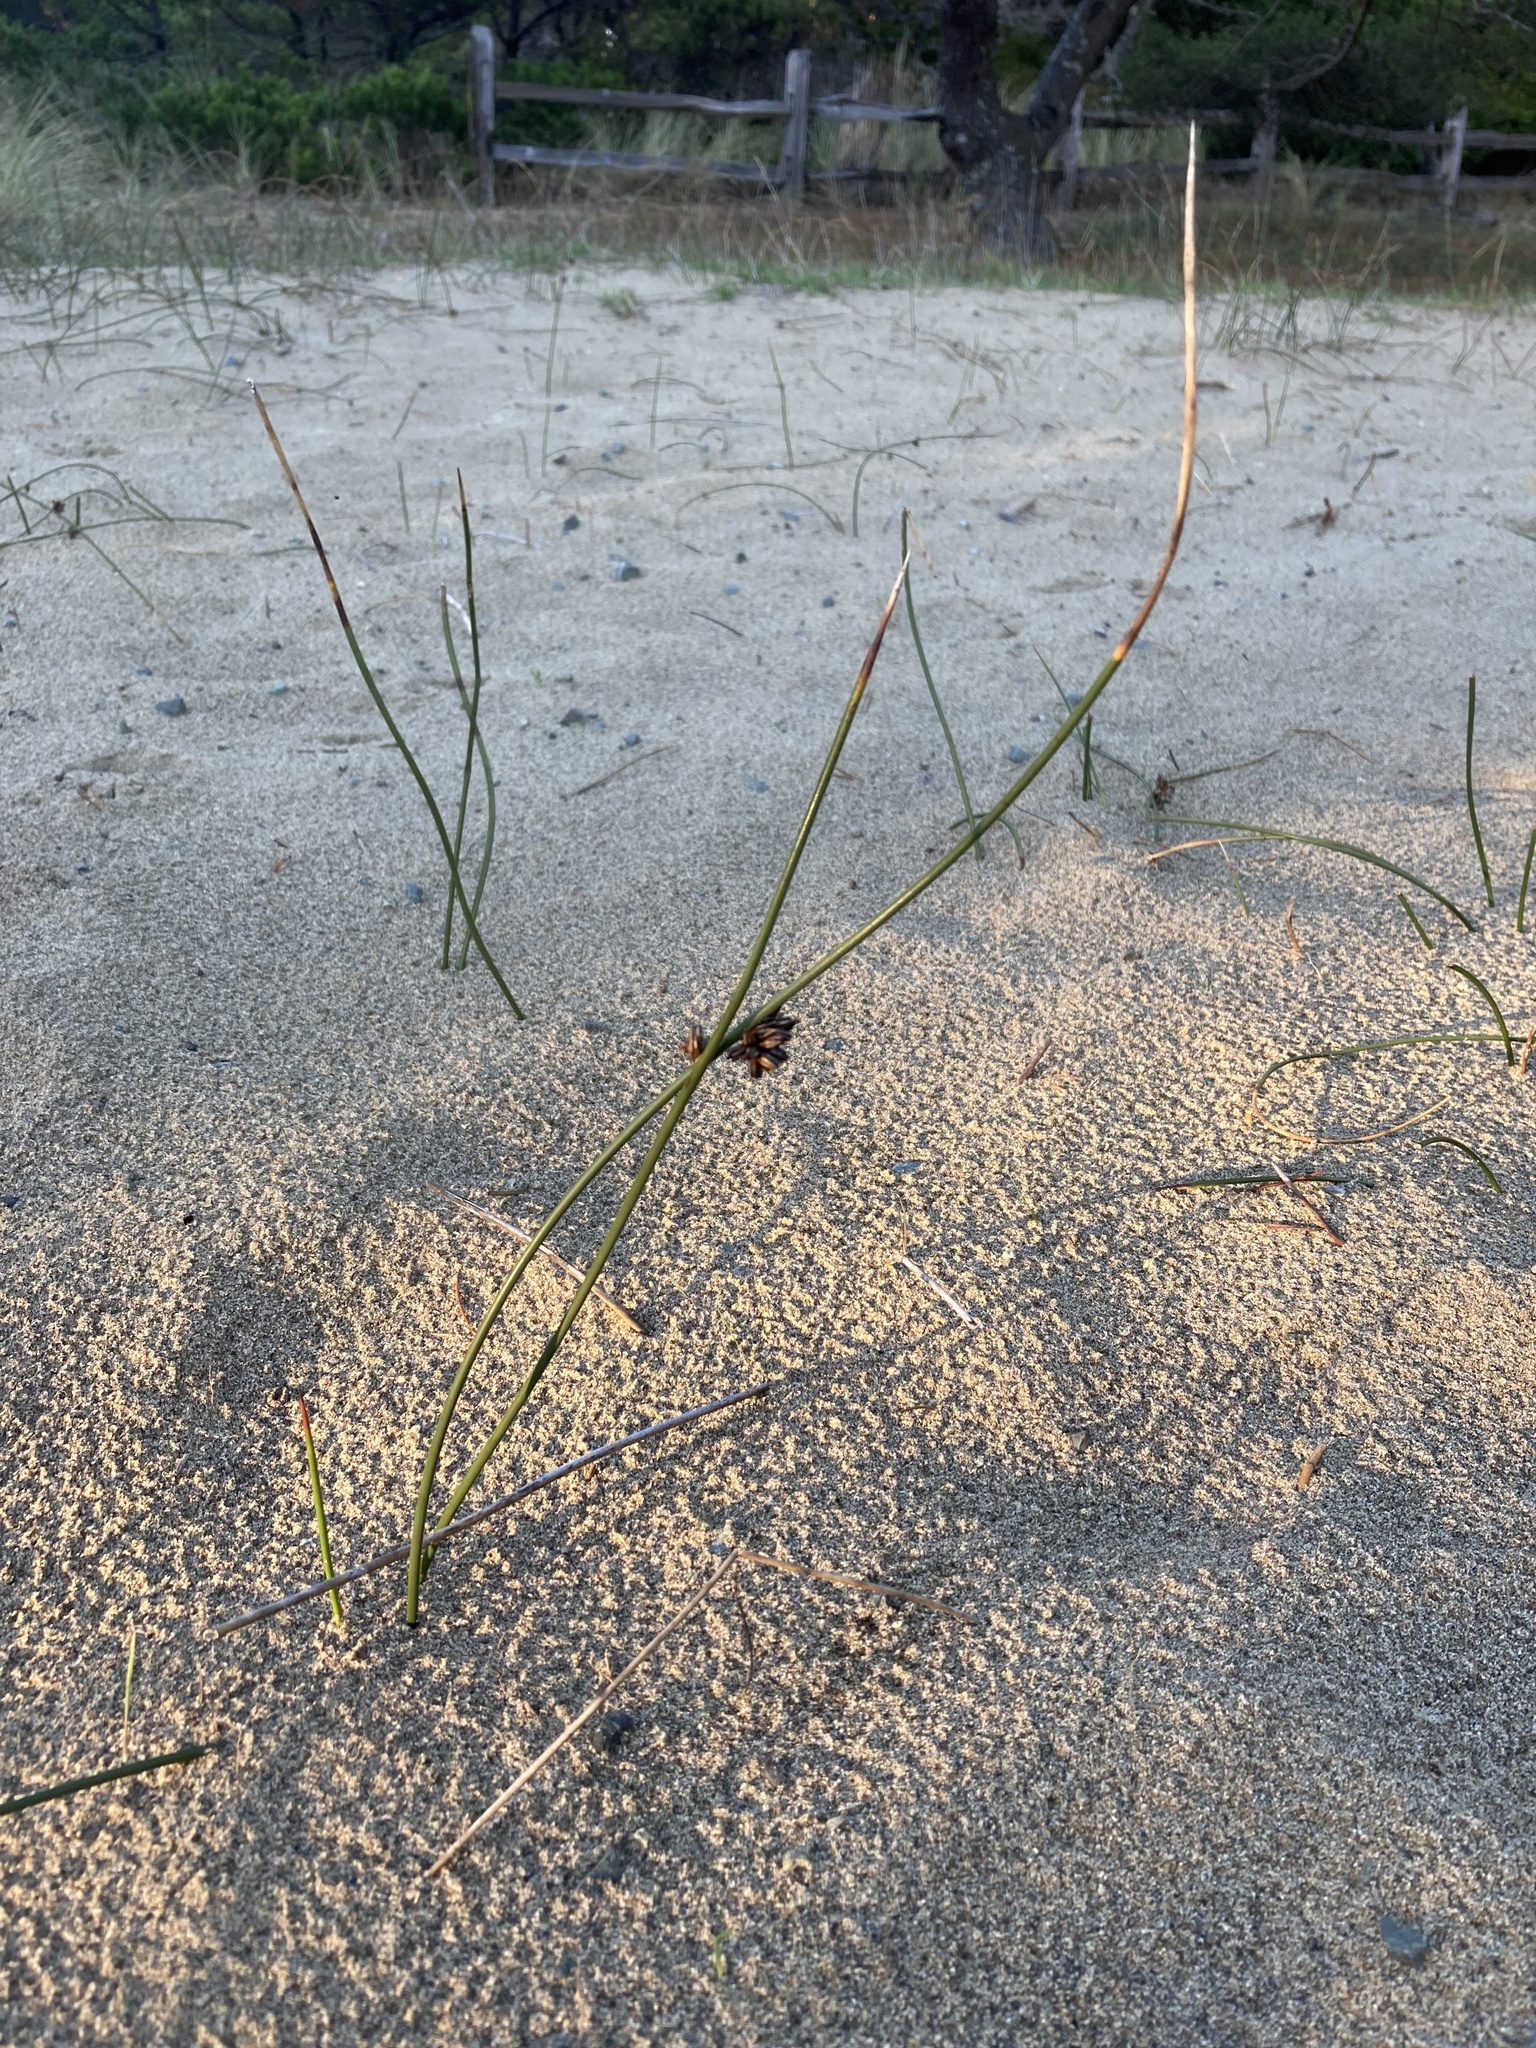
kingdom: Plantae
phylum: Tracheophyta
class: Liliopsida
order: Poales
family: Juncaceae
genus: Juncus
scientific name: Juncus breweri
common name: Brewer's rush
